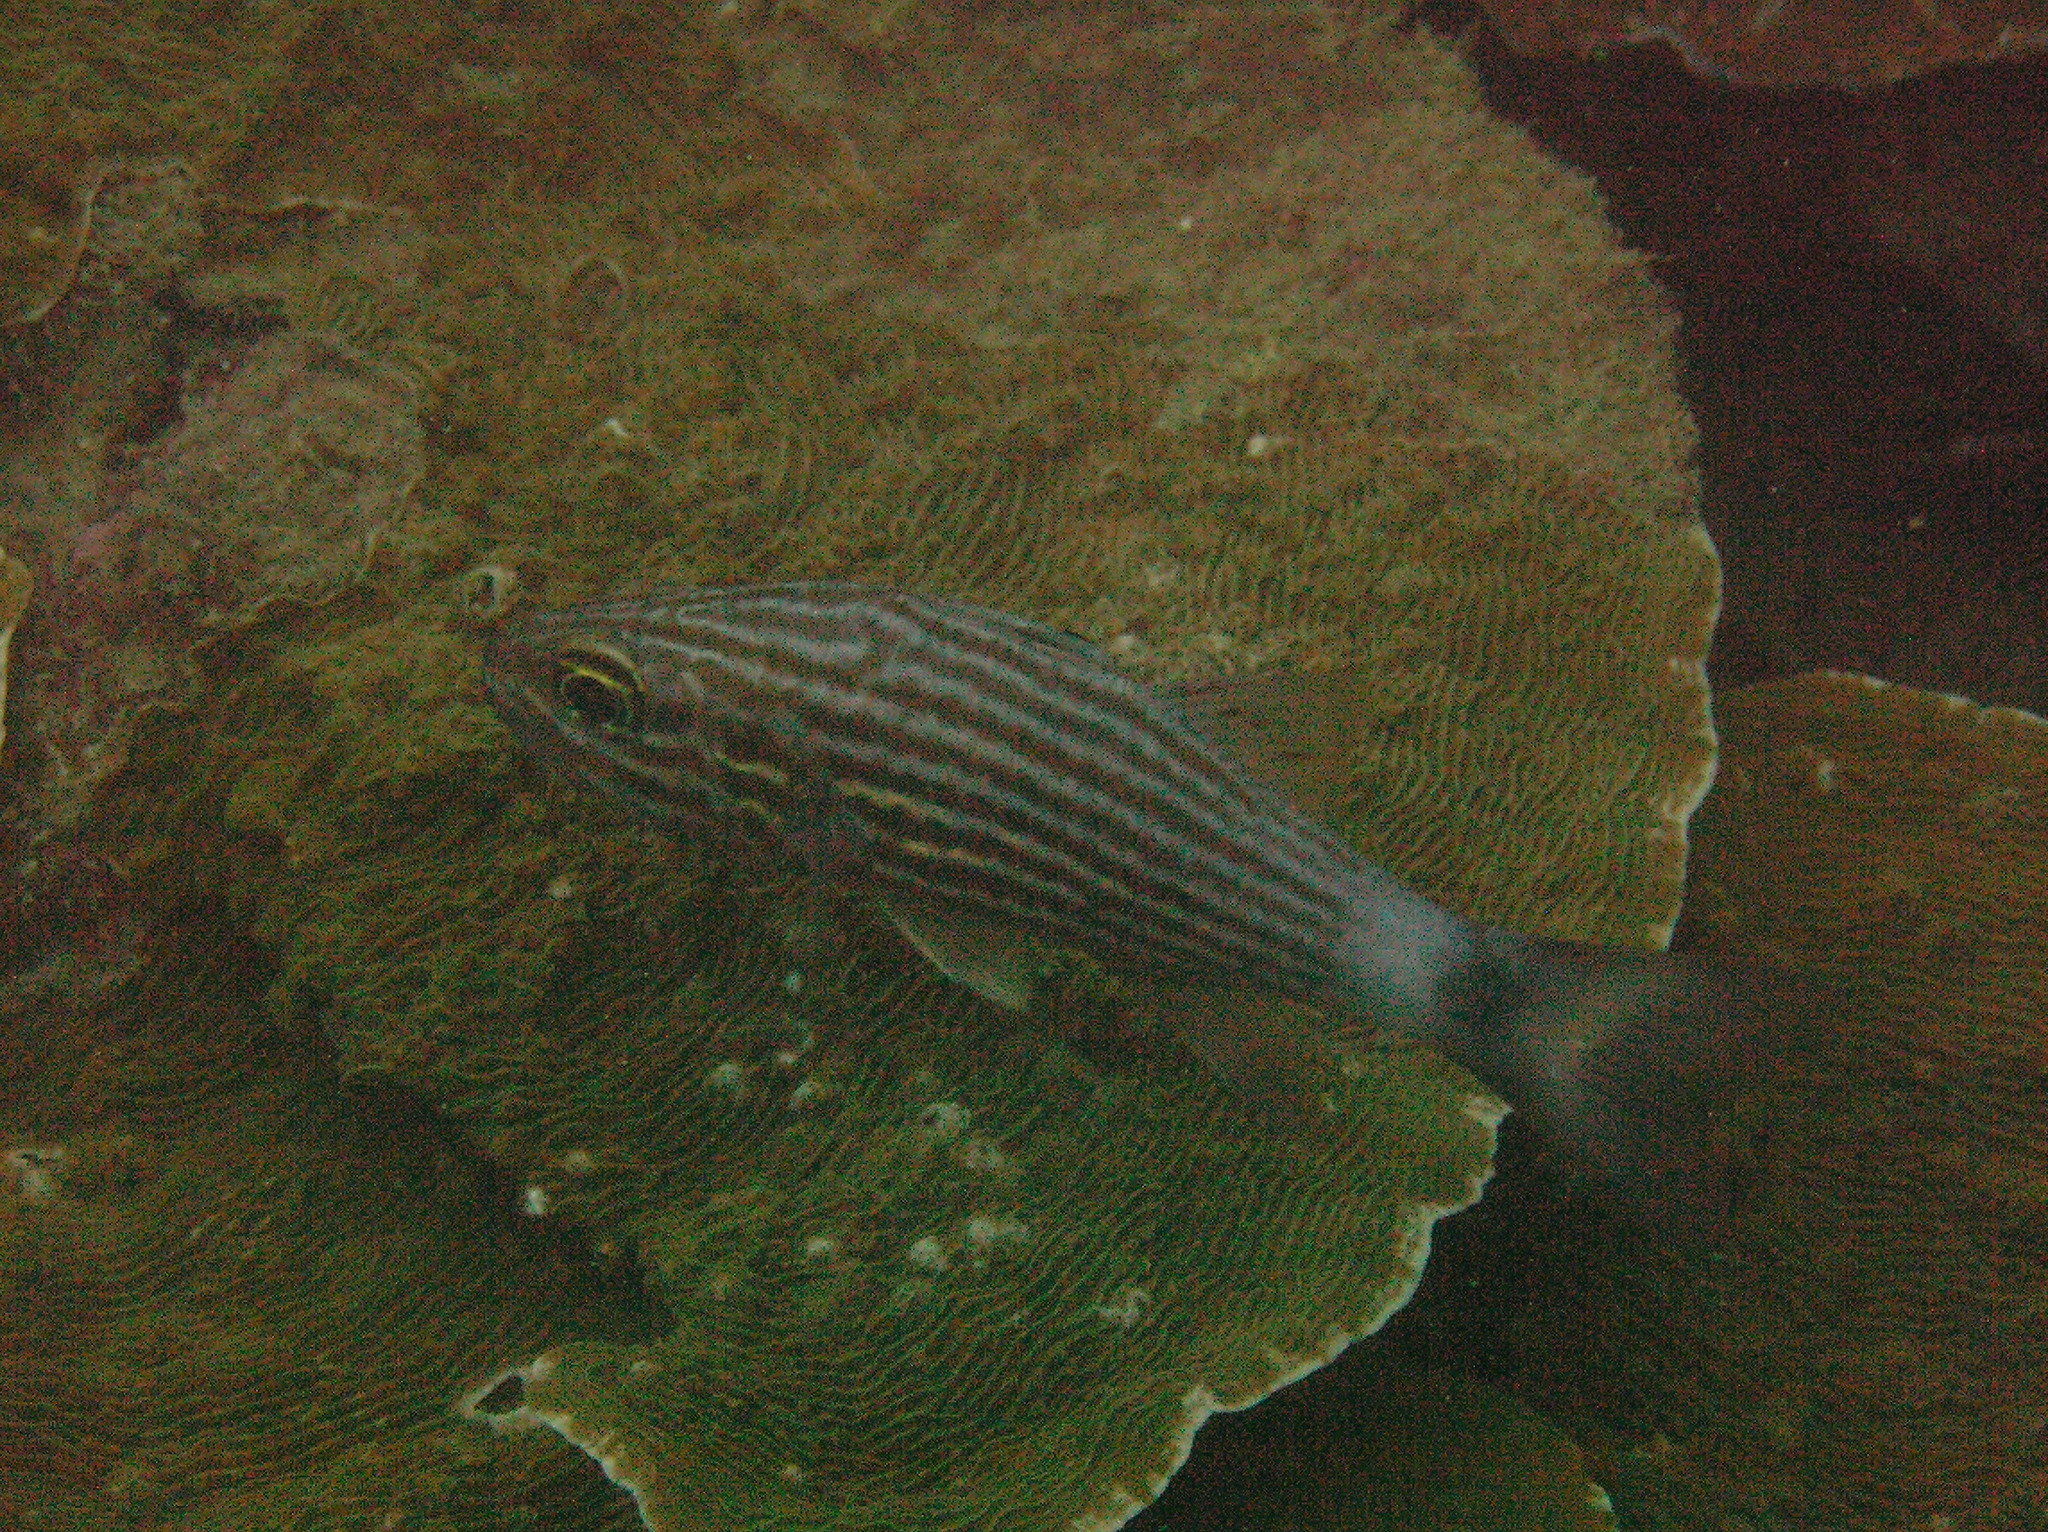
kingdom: Animalia
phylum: Chordata
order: Perciformes
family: Apogonidae
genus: Cheilodipterus
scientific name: Cheilodipterus macrodon
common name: Eight-lined cardinalfish
